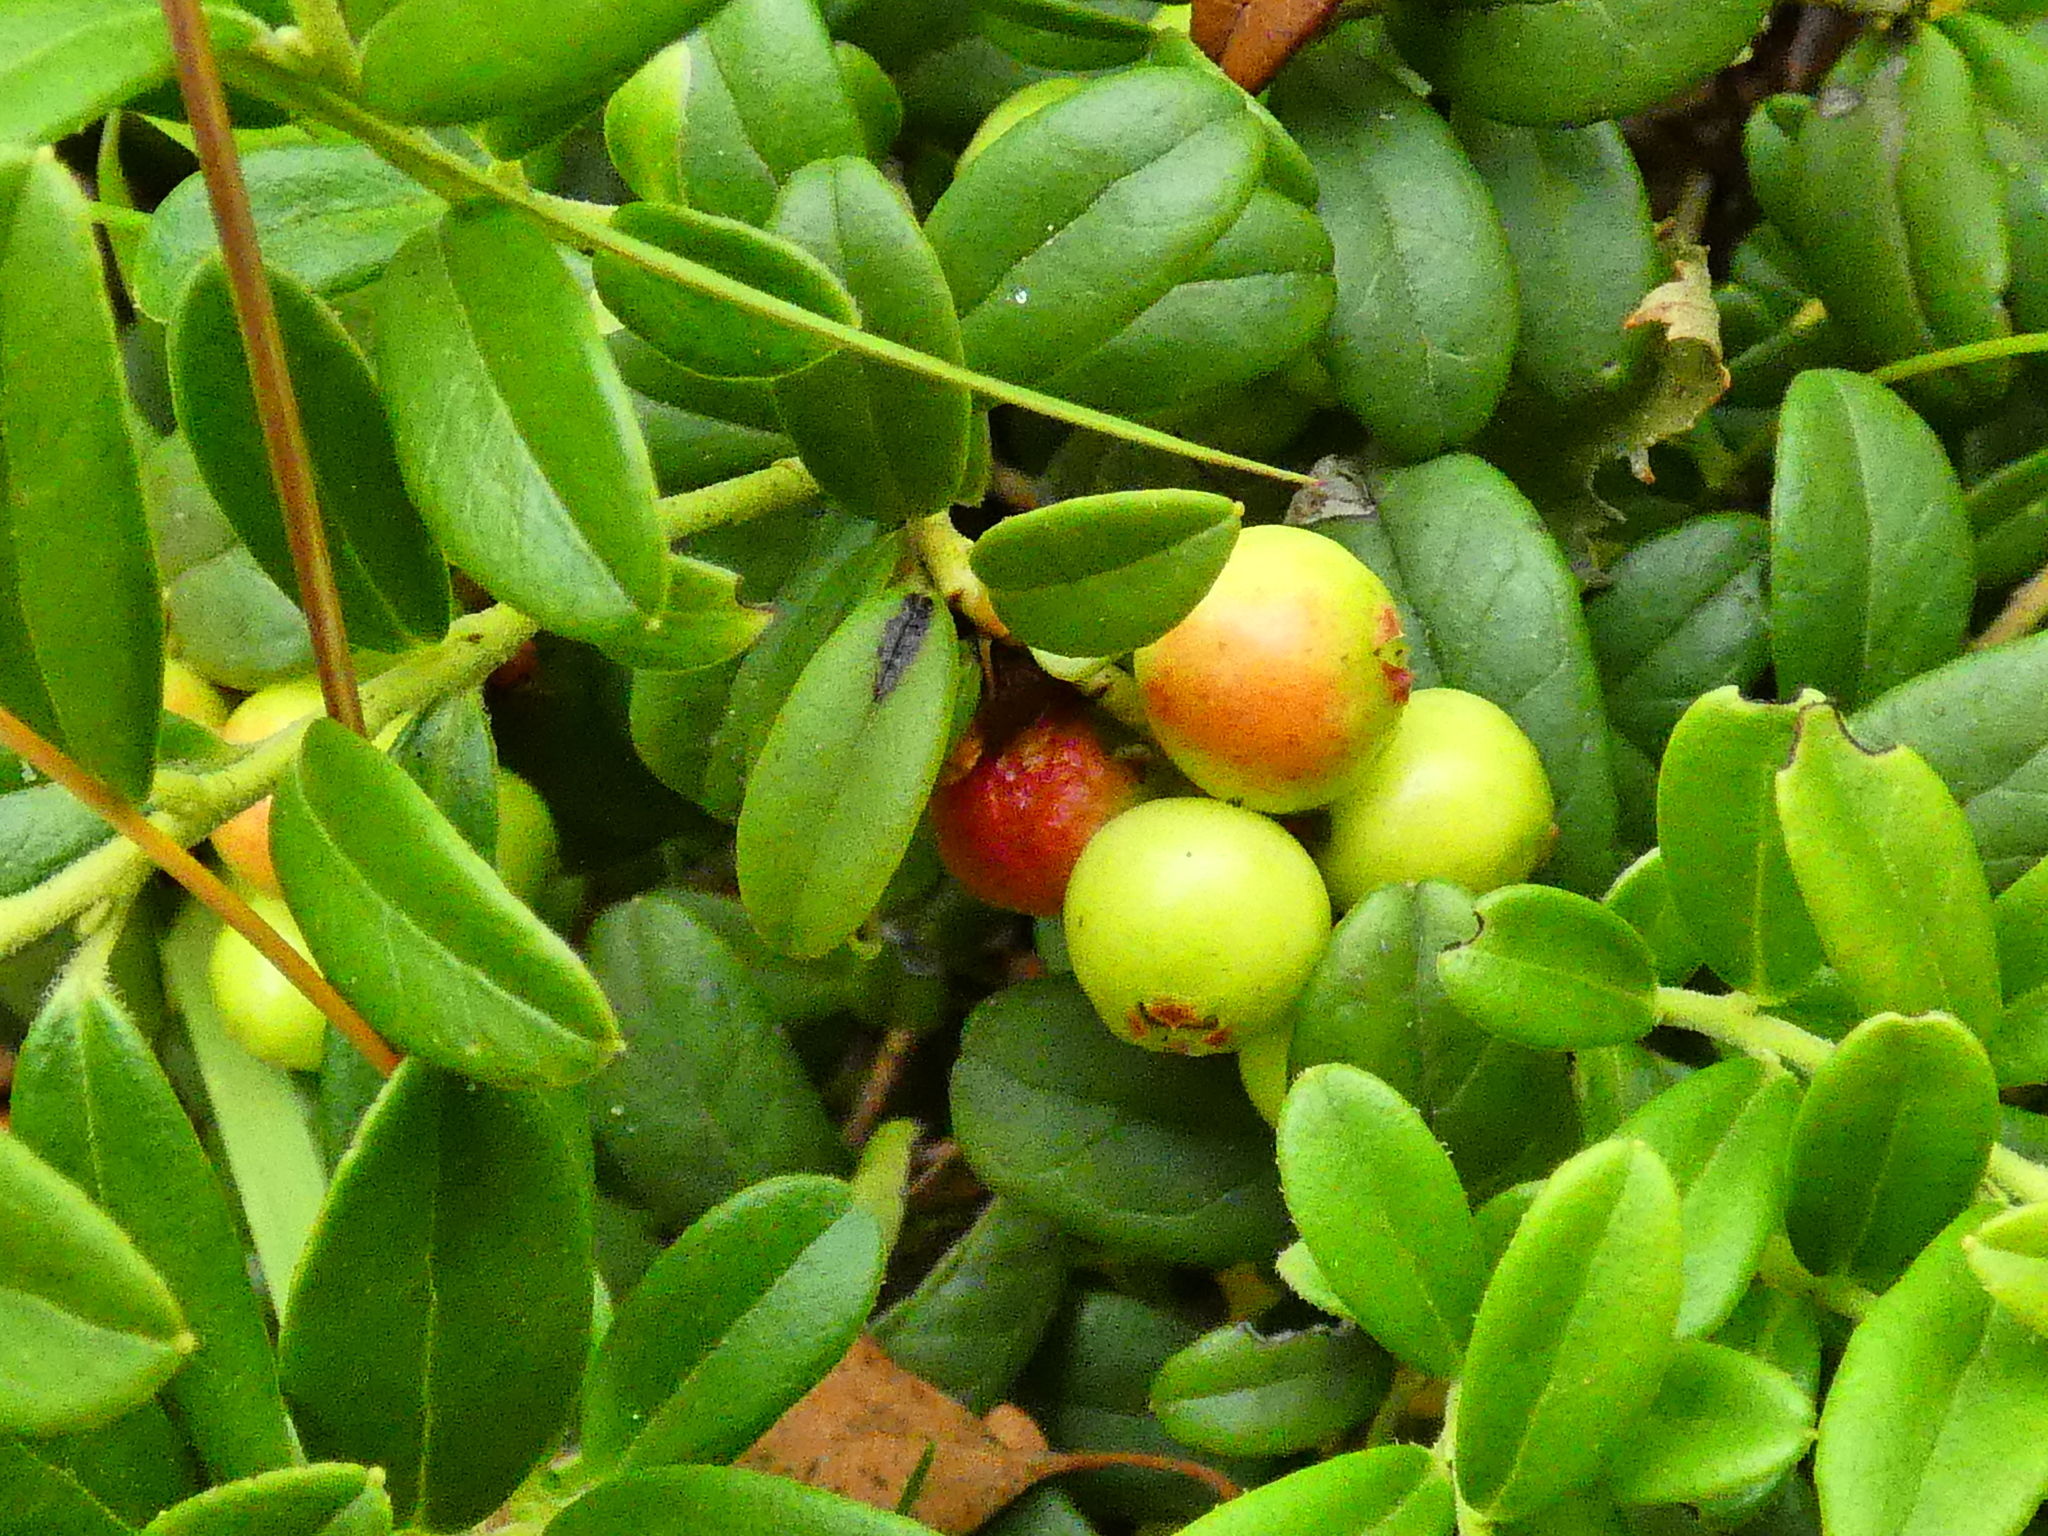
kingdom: Plantae
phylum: Tracheophyta
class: Magnoliopsida
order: Ericales
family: Ericaceae
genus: Vaccinium
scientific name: Vaccinium vitis-idaea
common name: Cowberry
